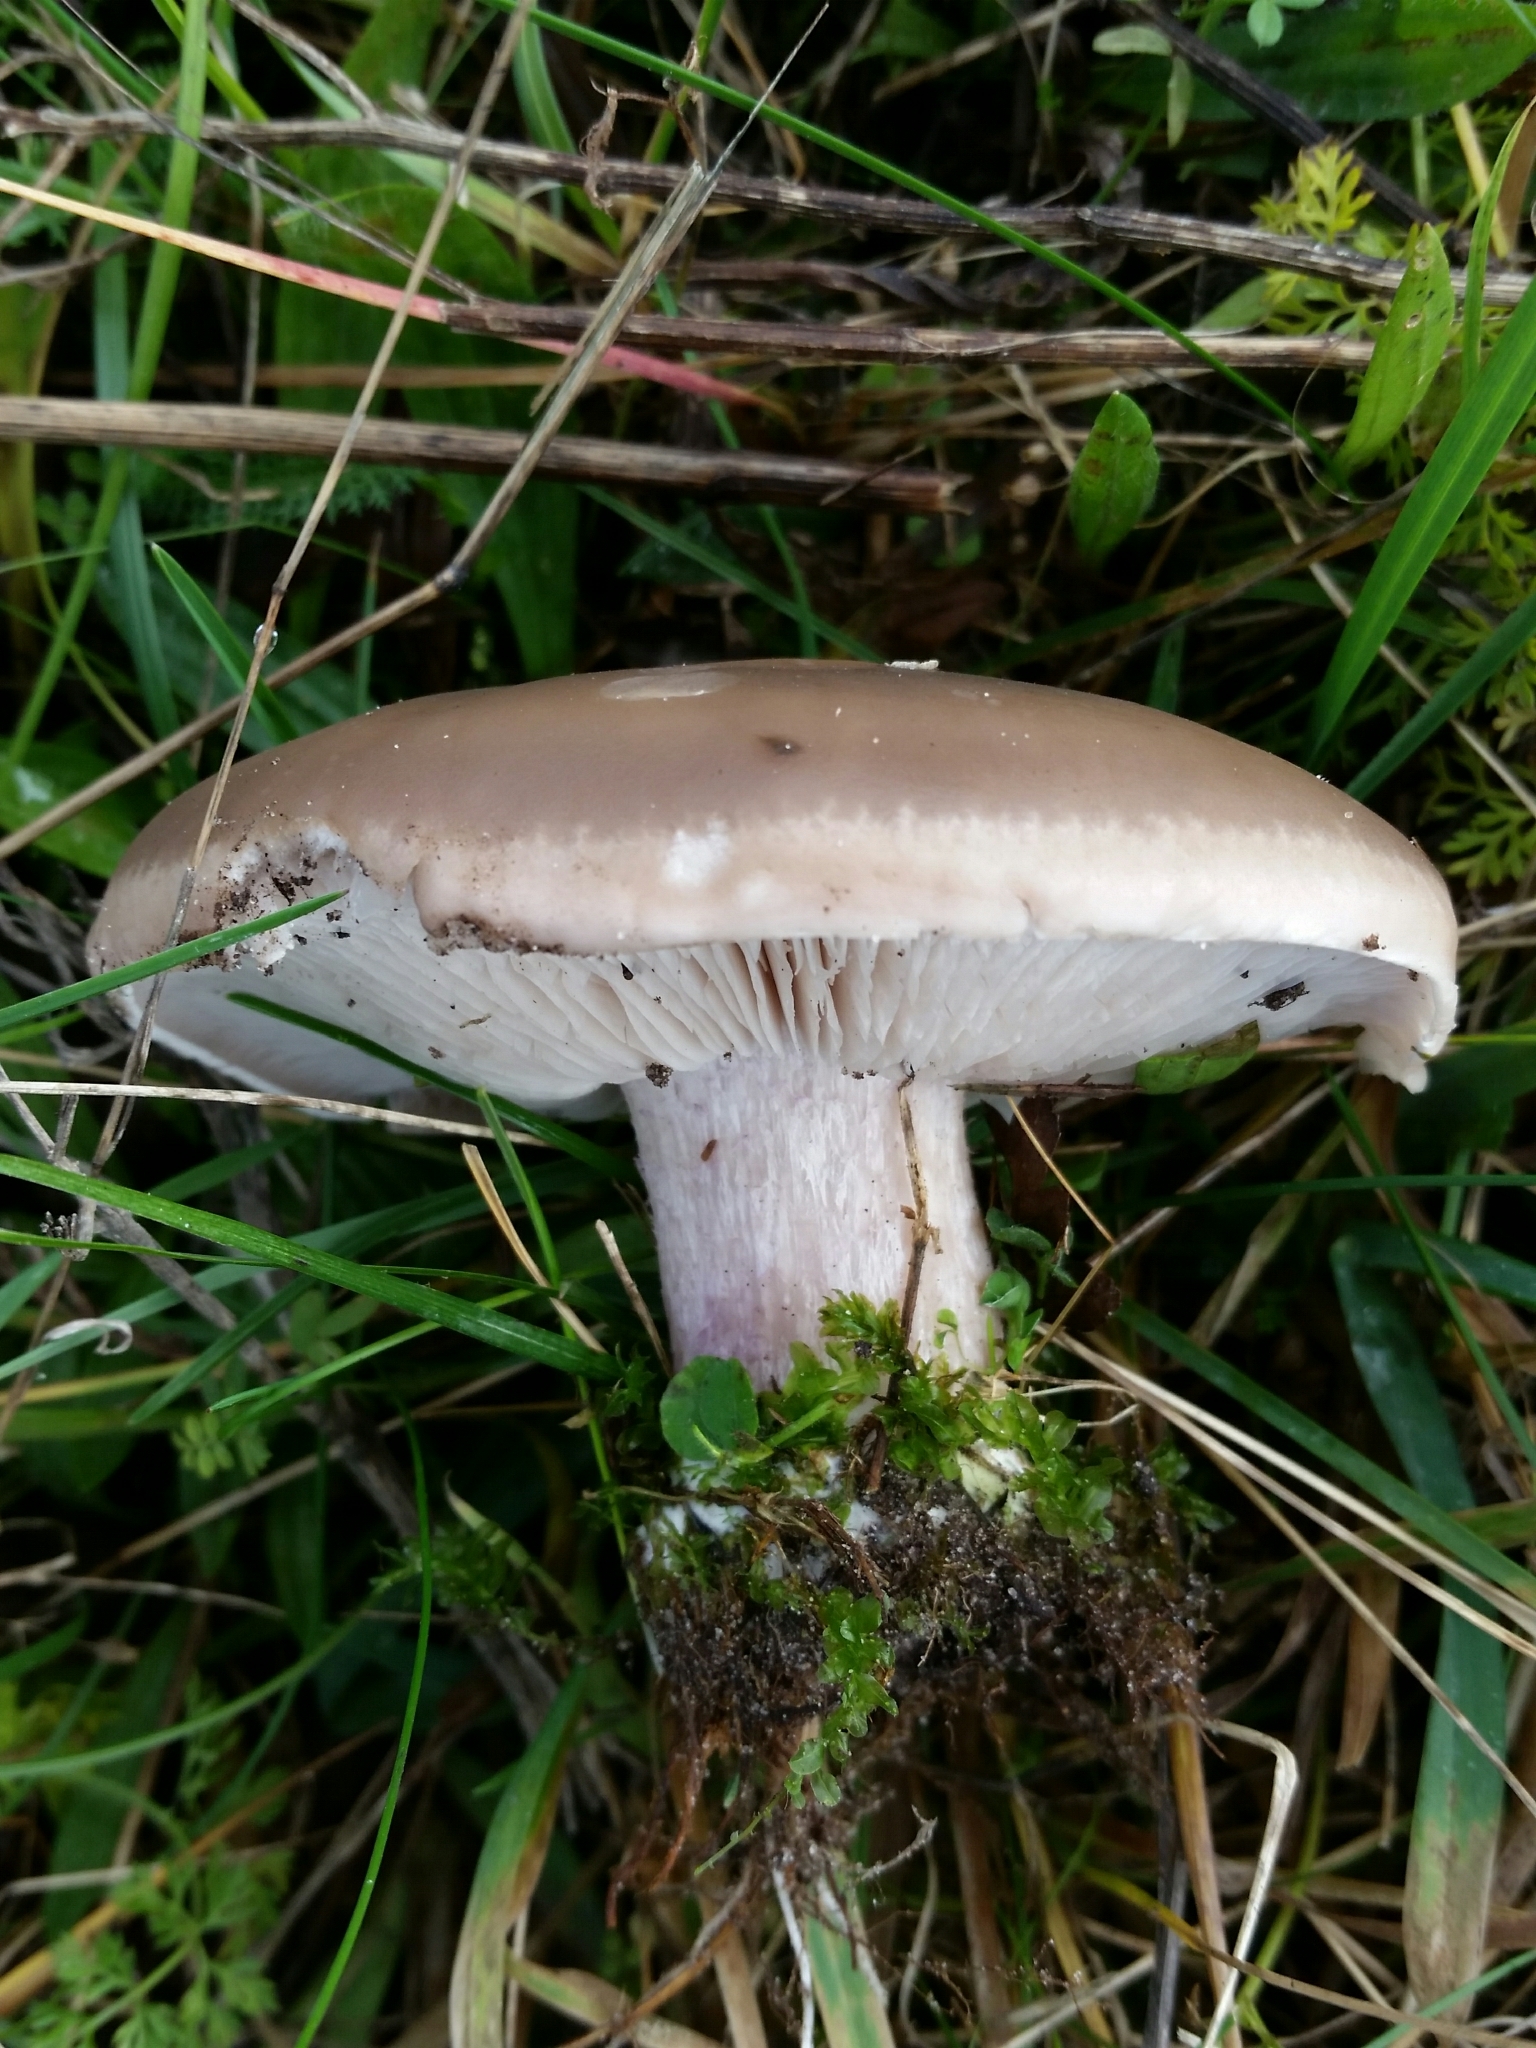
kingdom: Fungi
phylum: Basidiomycota
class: Agaricomycetes
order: Agaricales
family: Omphalotaceae
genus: Collybiopsis
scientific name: Collybiopsis peronata
